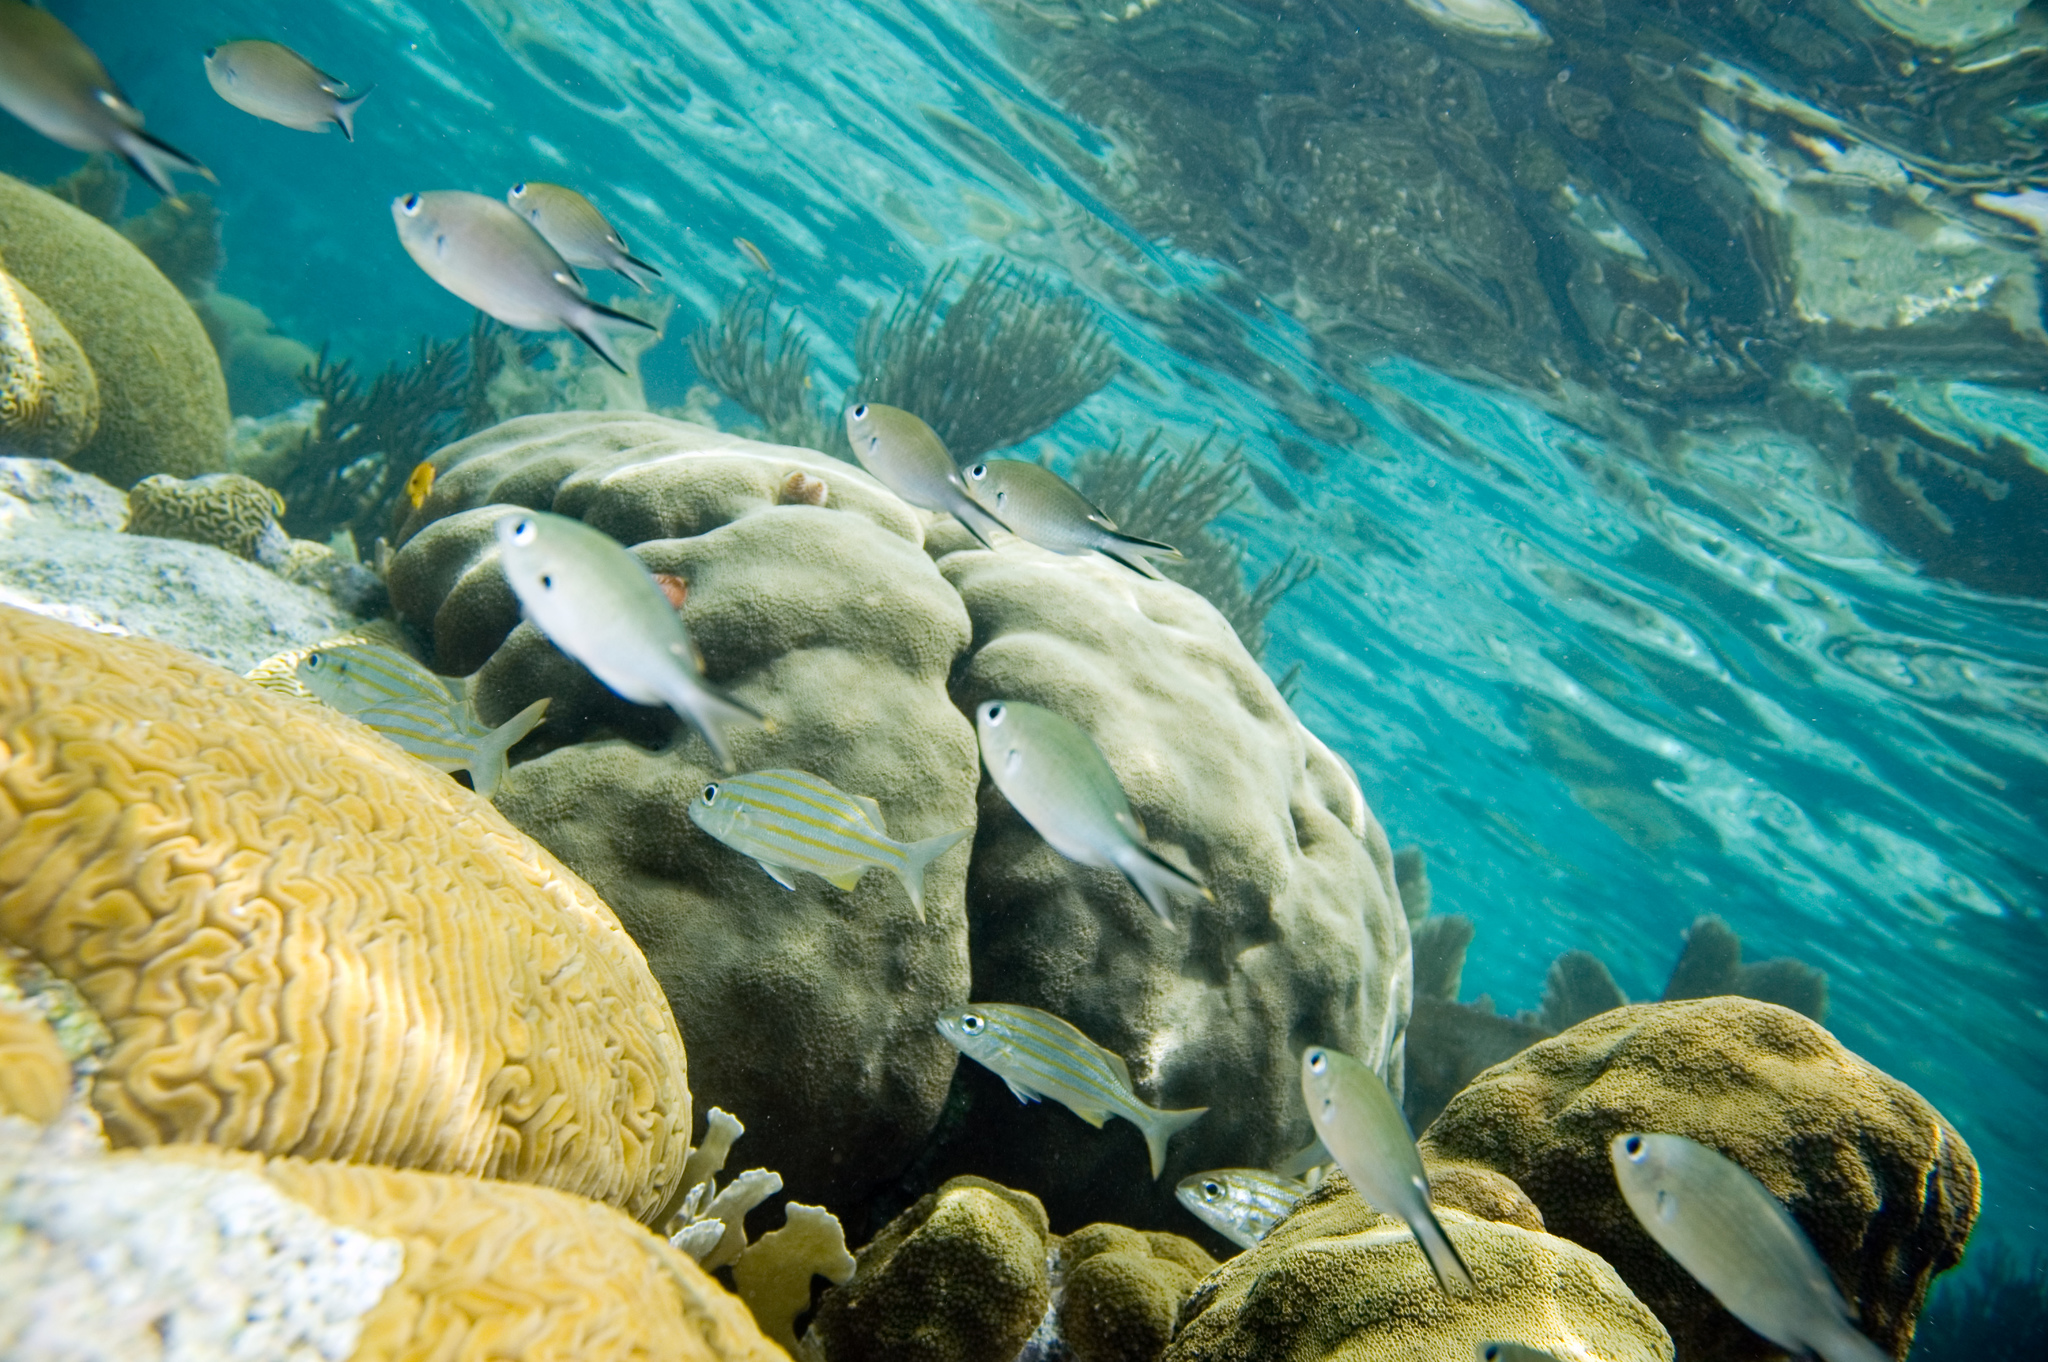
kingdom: Animalia
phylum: Chordata
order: Perciformes
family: Haemulidae
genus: Haemulon
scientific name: Haemulon chrysargyreum
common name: Smallmouth grunt
